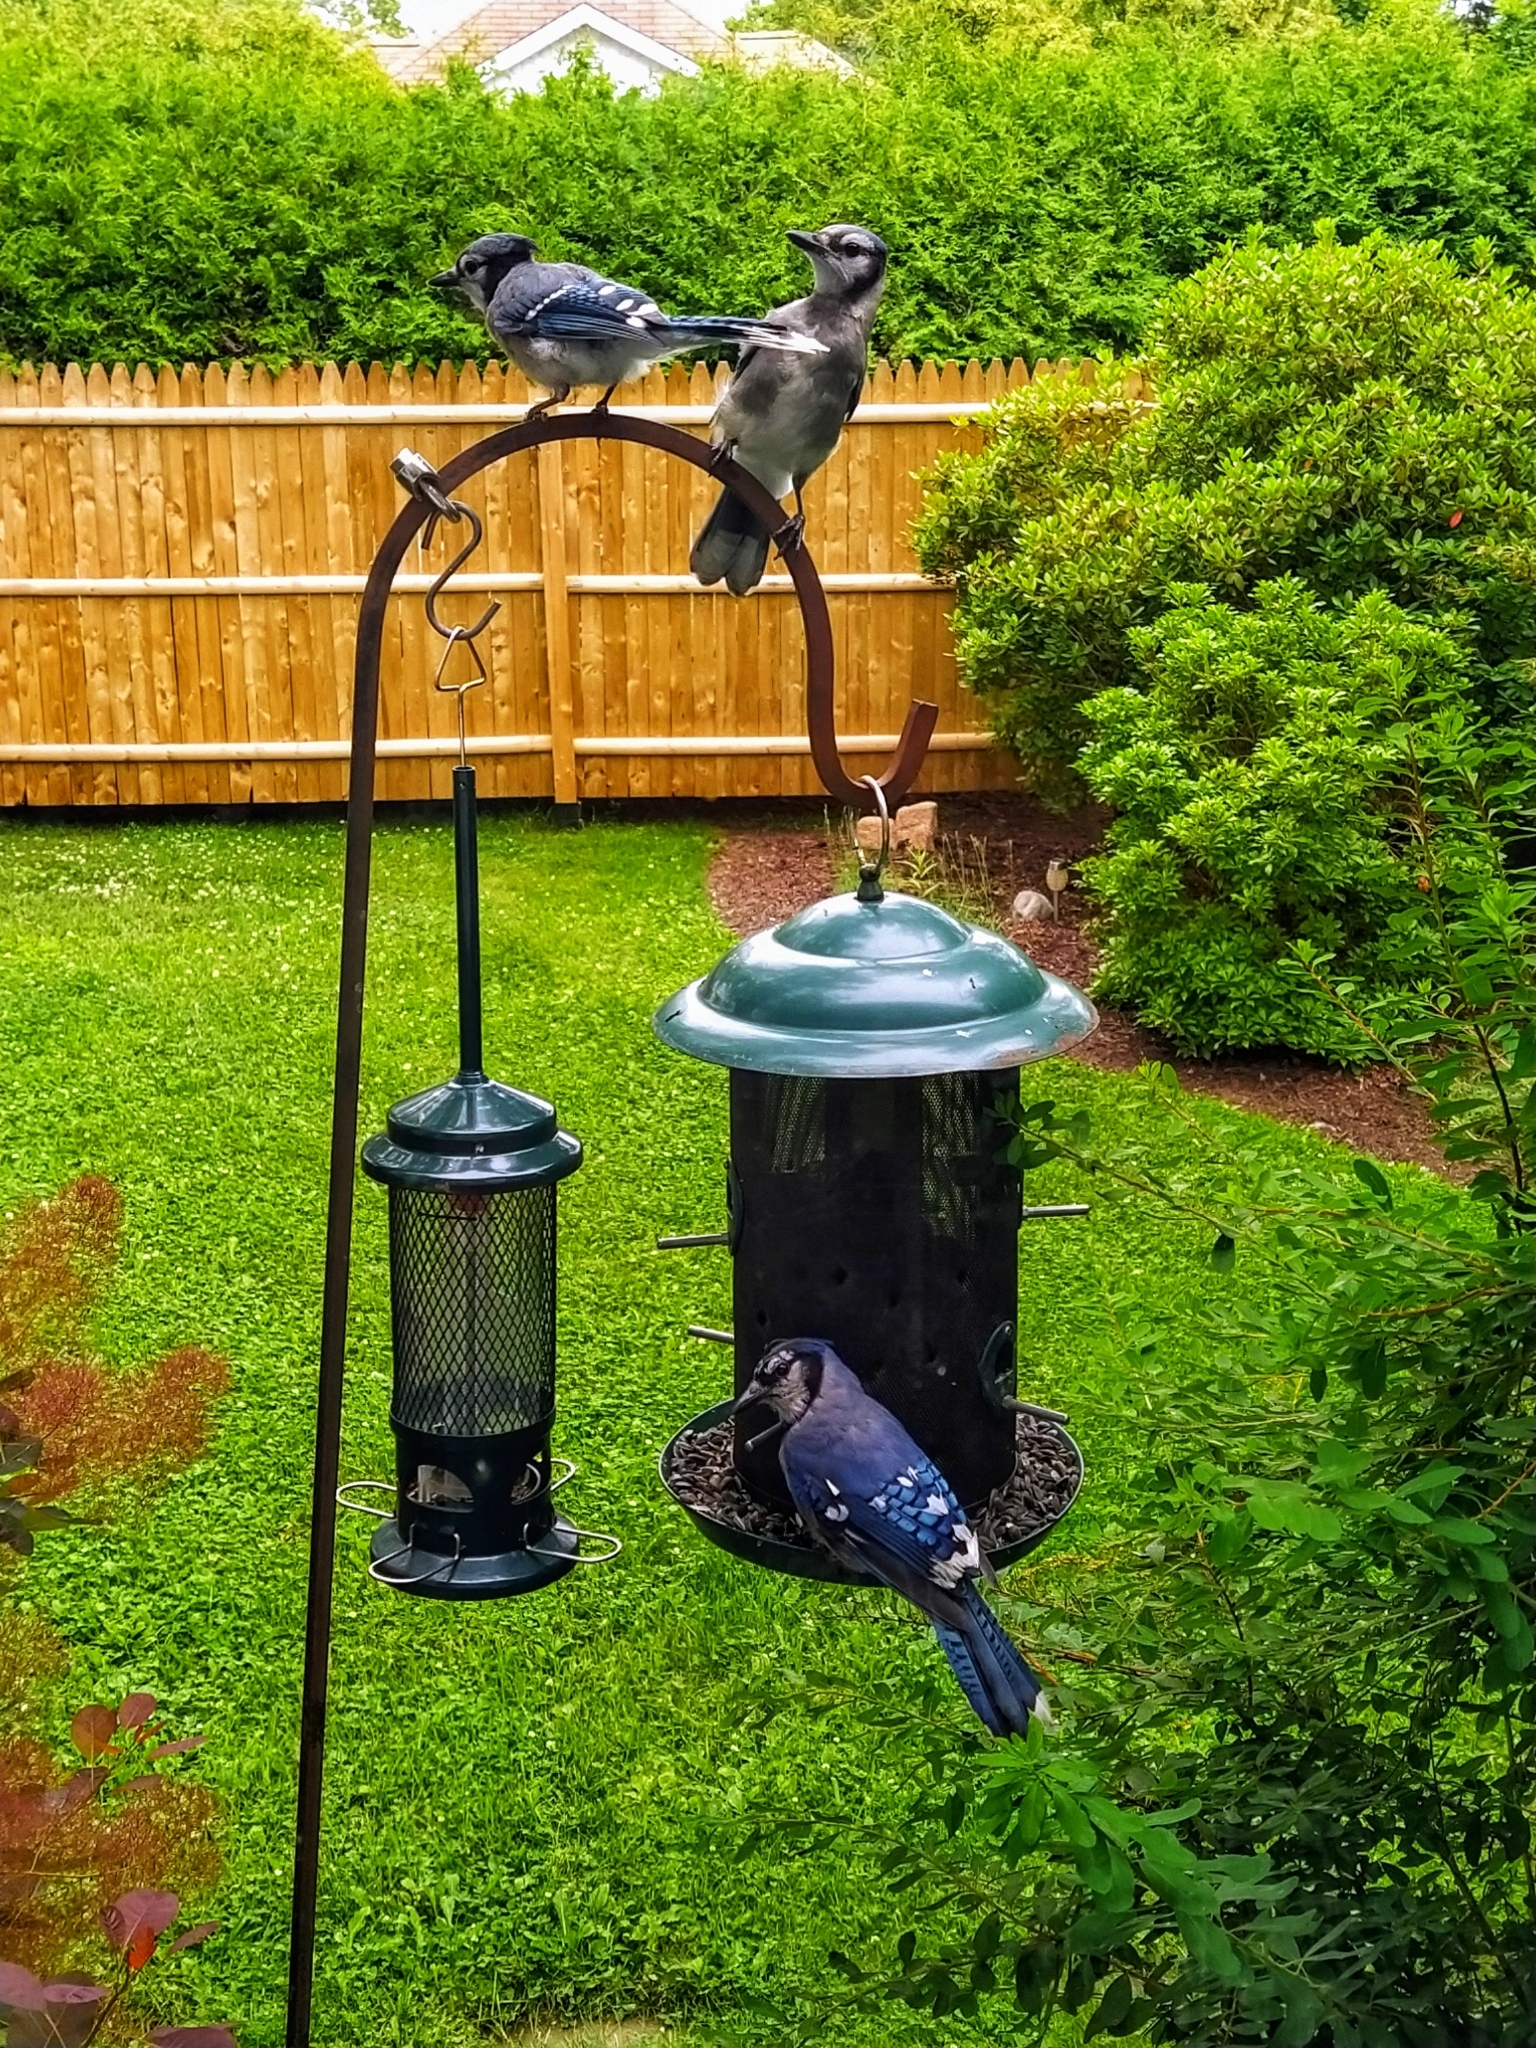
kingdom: Animalia
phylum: Chordata
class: Aves
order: Passeriformes
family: Corvidae
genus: Cyanocitta
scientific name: Cyanocitta cristata
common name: Blue jay
